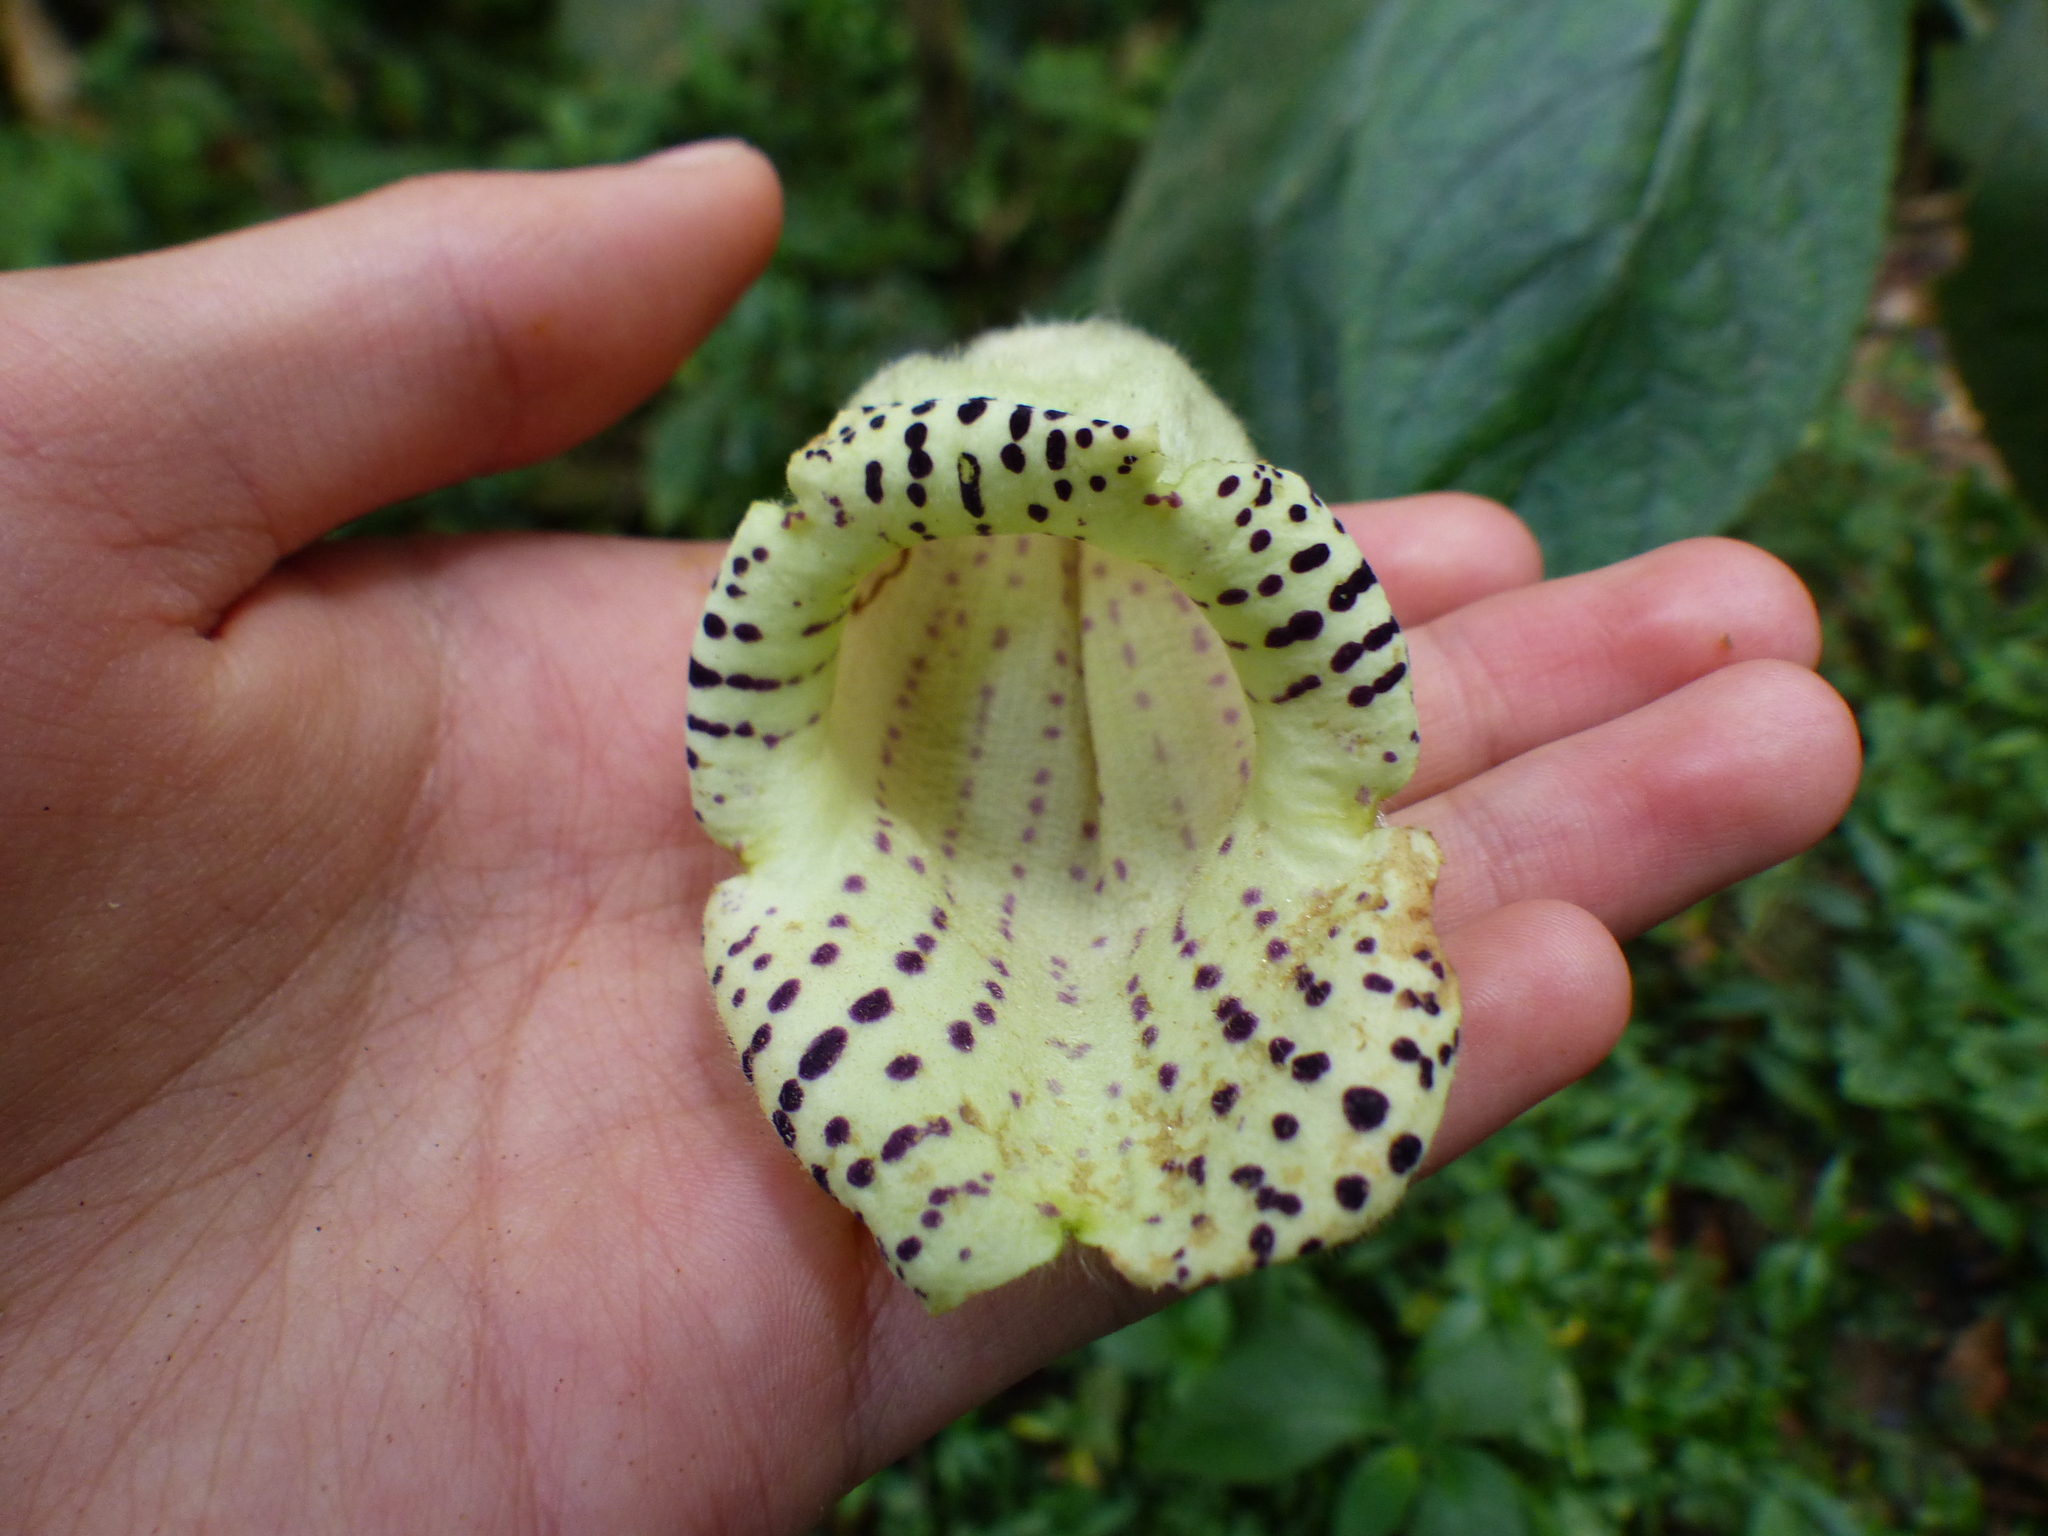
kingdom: Plantae
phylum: Tracheophyta
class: Magnoliopsida
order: Lamiales
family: Gesneriaceae
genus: Kohleria
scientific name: Kohleria tigridia
